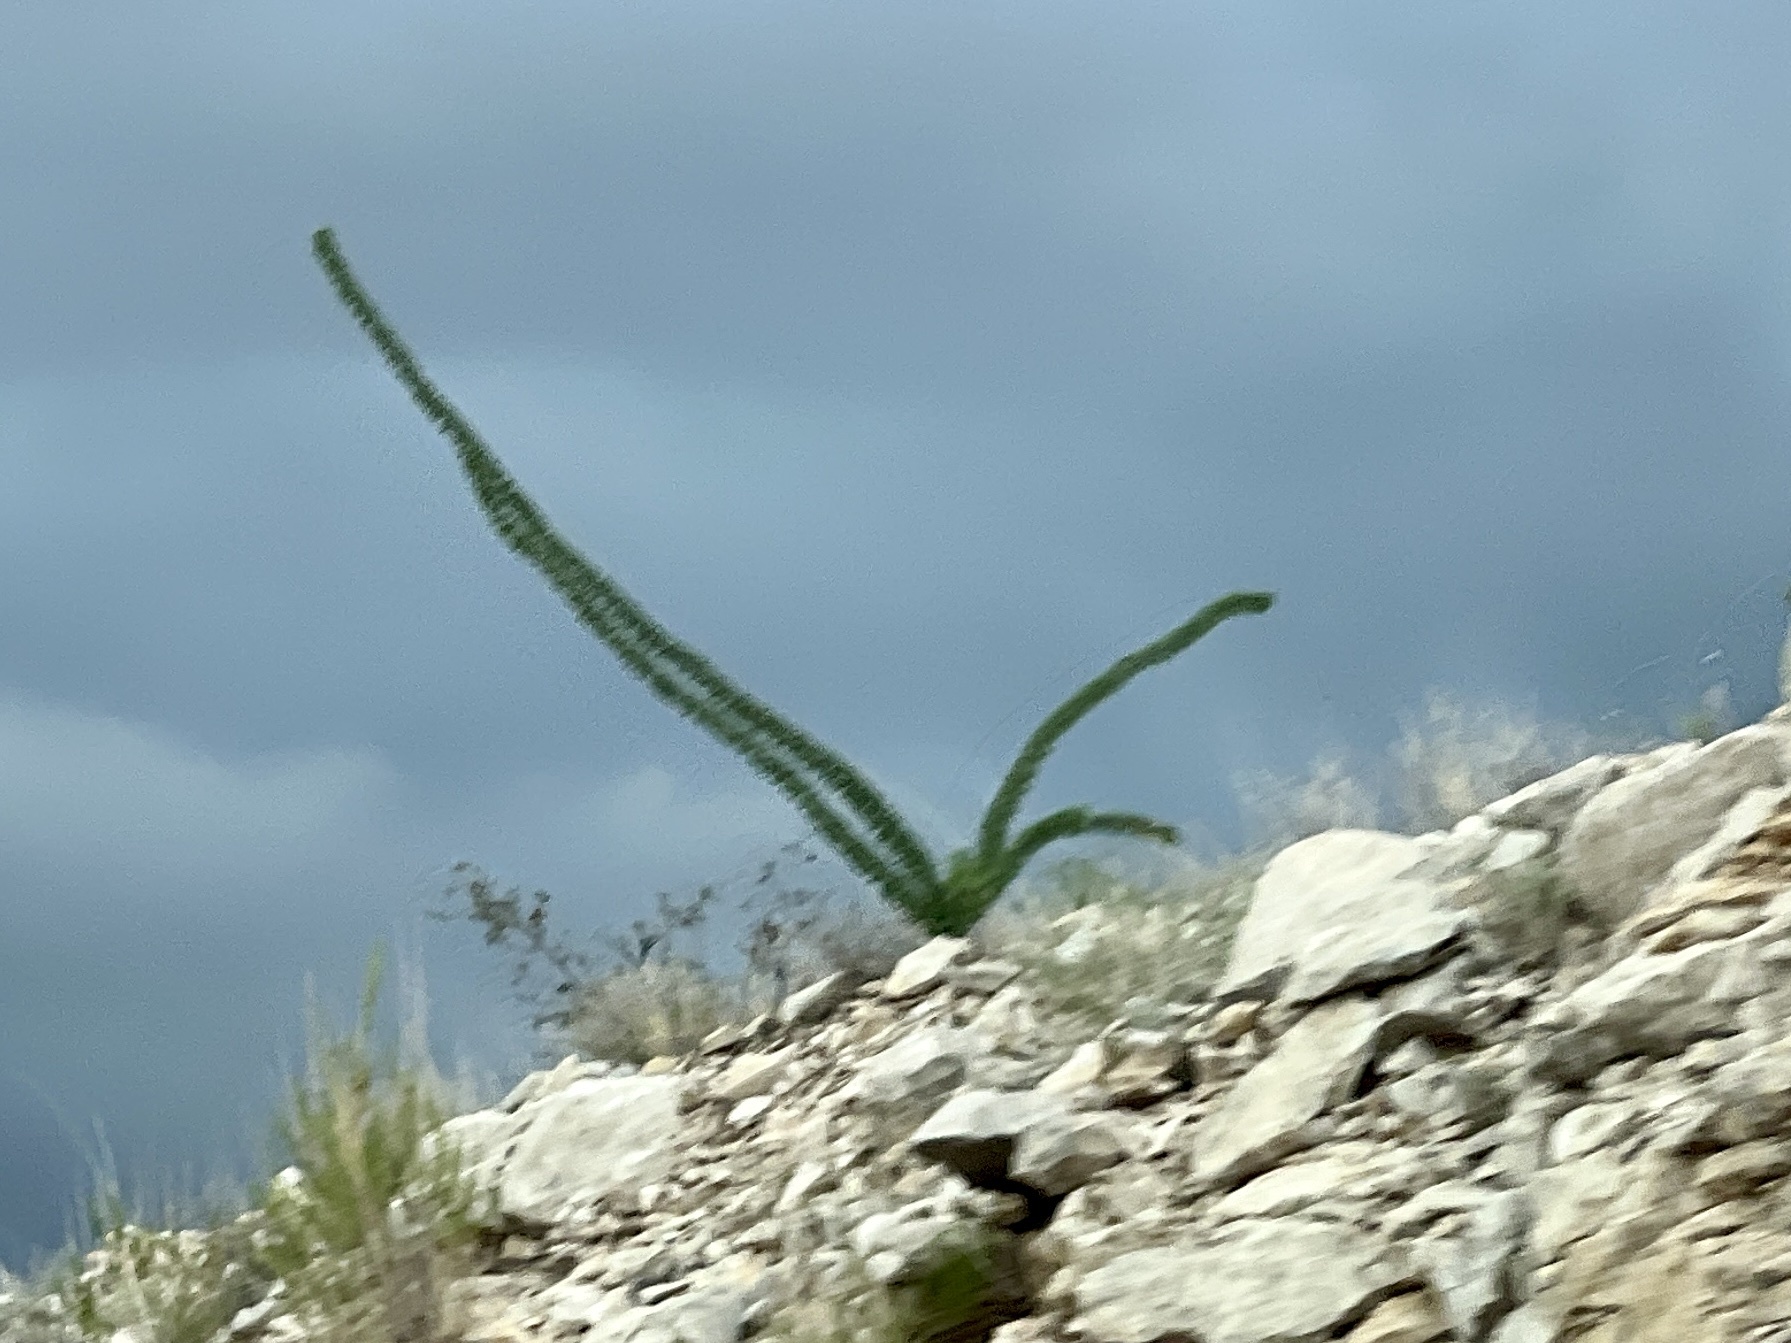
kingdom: Plantae
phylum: Tracheophyta
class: Magnoliopsida
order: Ericales
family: Fouquieriaceae
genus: Fouquieria
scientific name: Fouquieria splendens
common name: Vine-cactus
